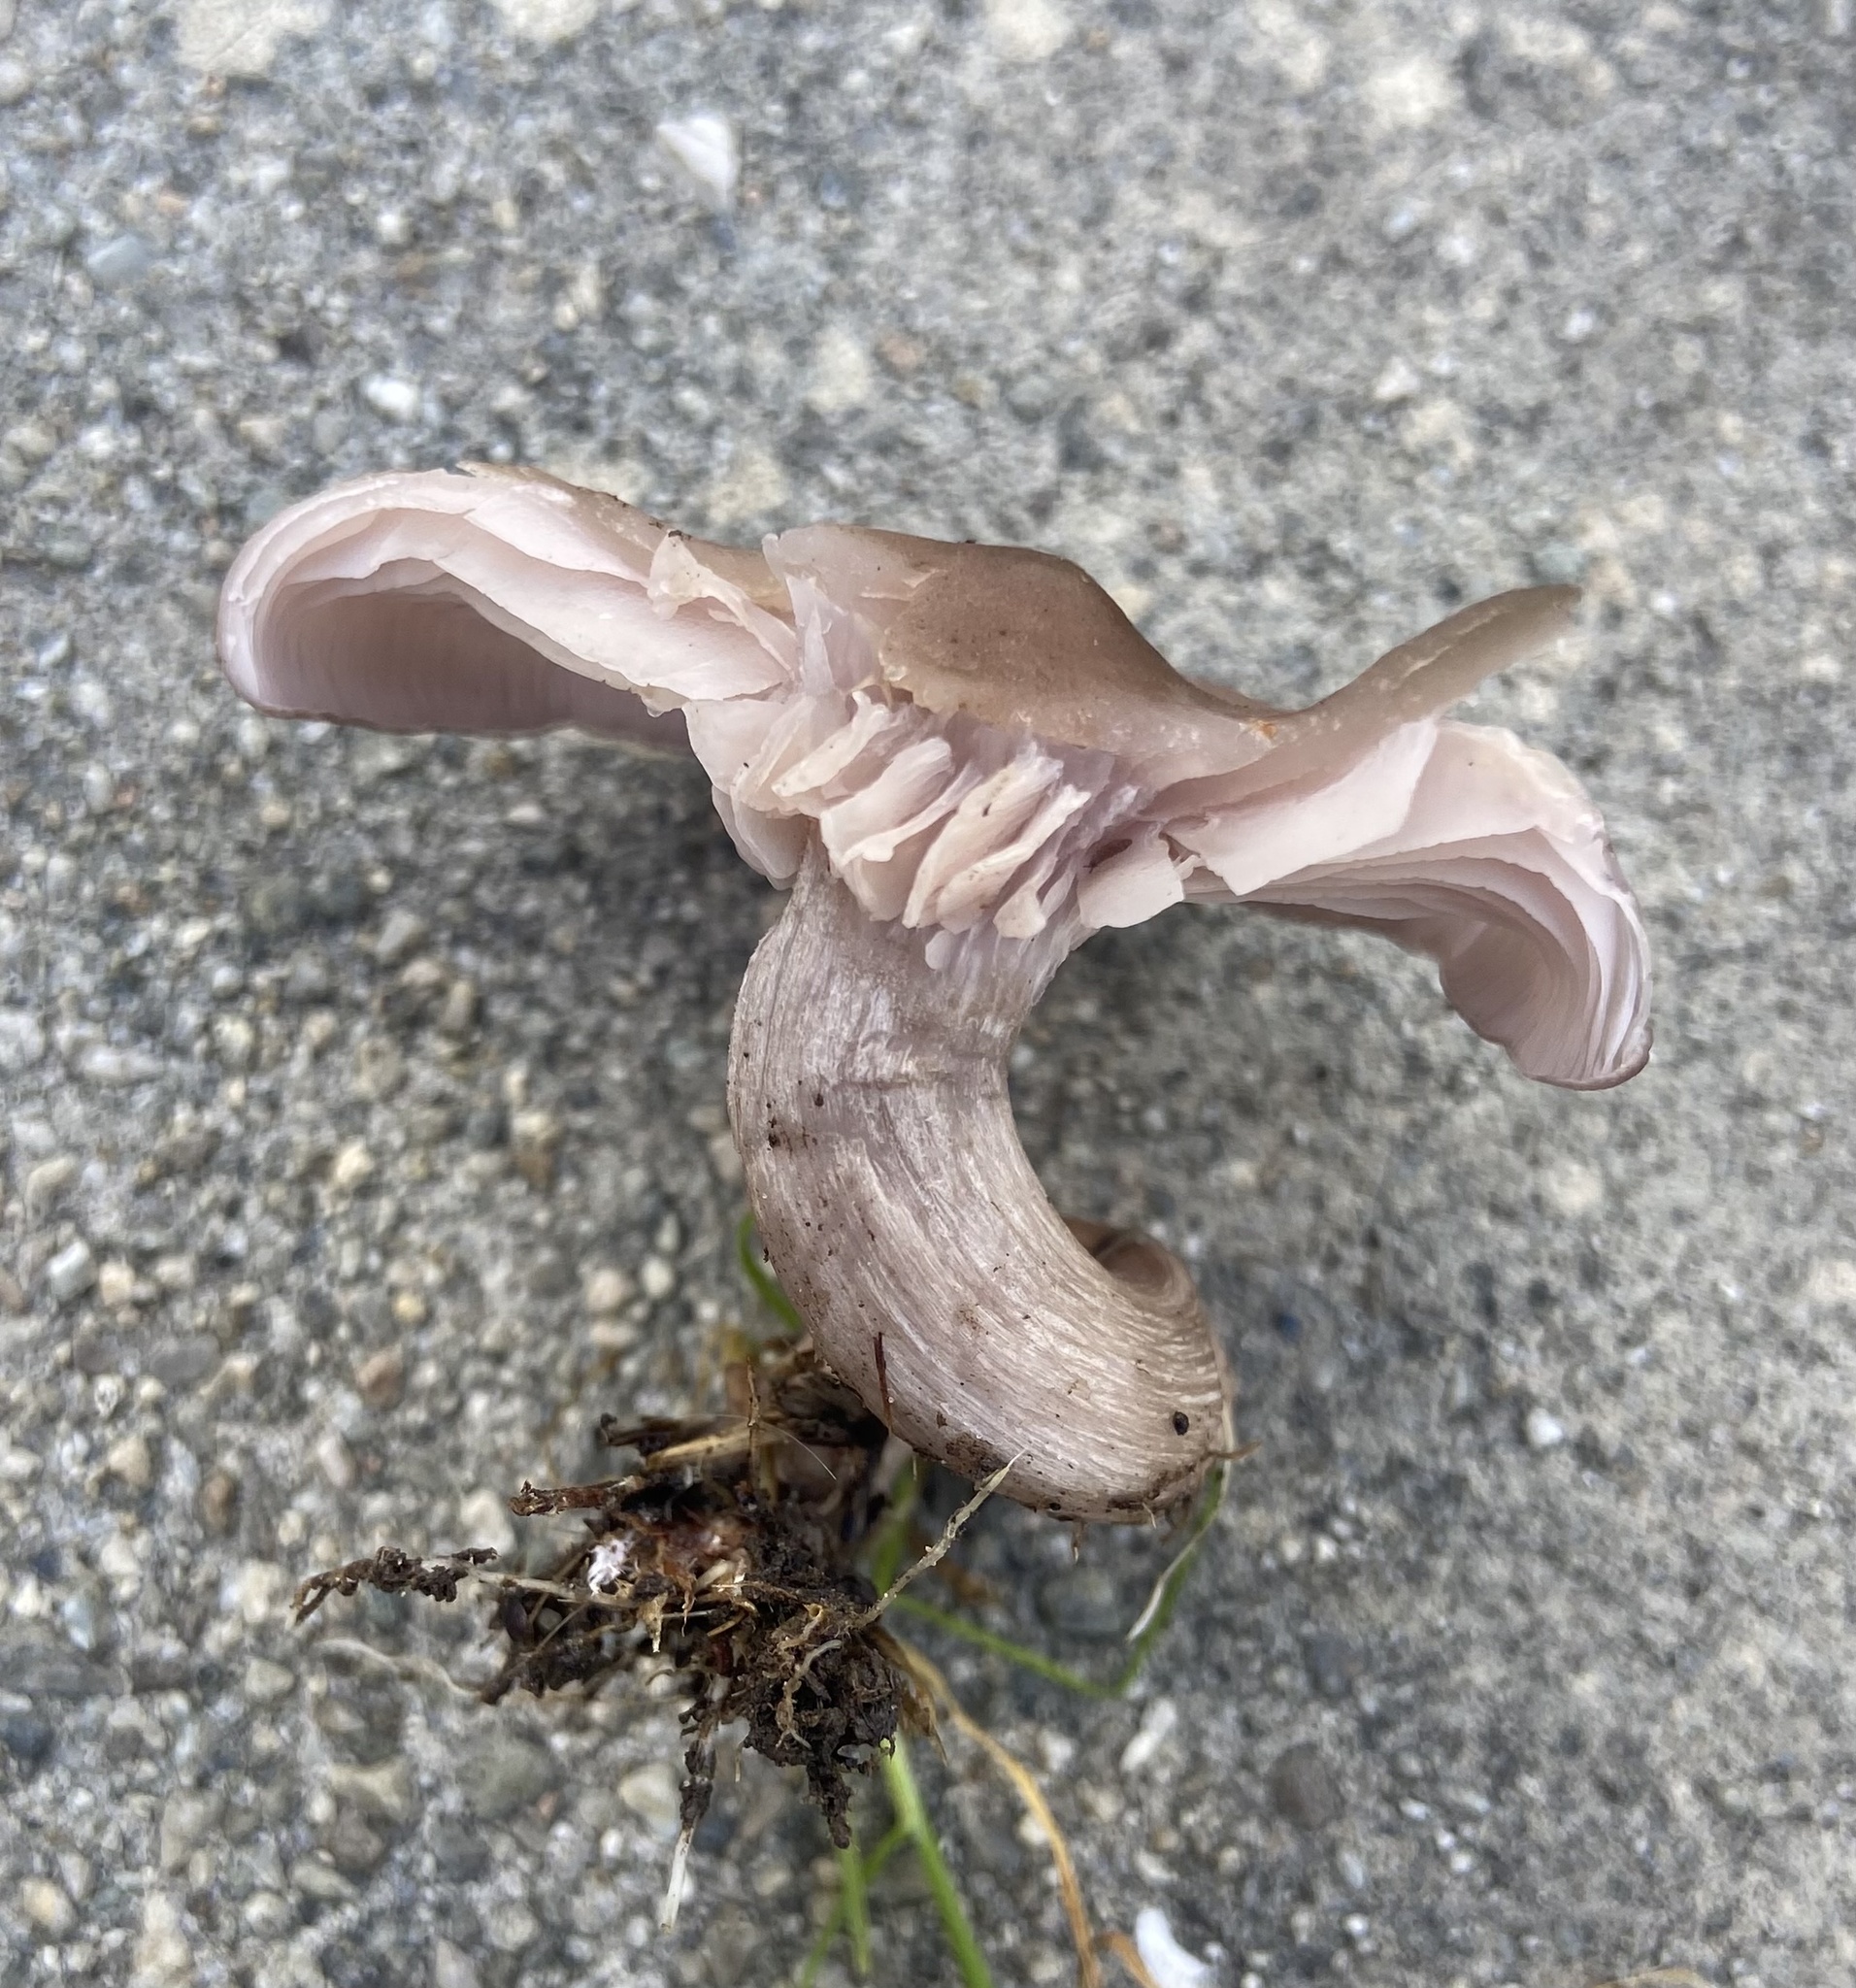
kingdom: Fungi
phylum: Basidiomycota
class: Agaricomycetes
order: Agaricales
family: Tricholomataceae
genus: Collybia
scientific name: Collybia
